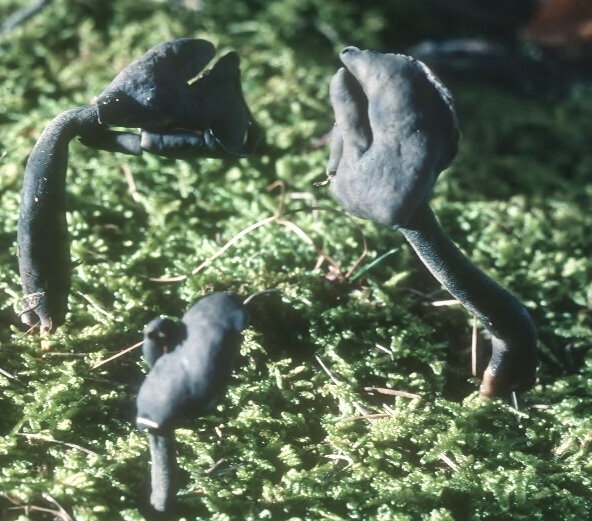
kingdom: Fungi
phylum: Ascomycota
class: Pezizomycetes
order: Pezizales
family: Helvellaceae
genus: Helvella
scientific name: Helvella pezizoides
